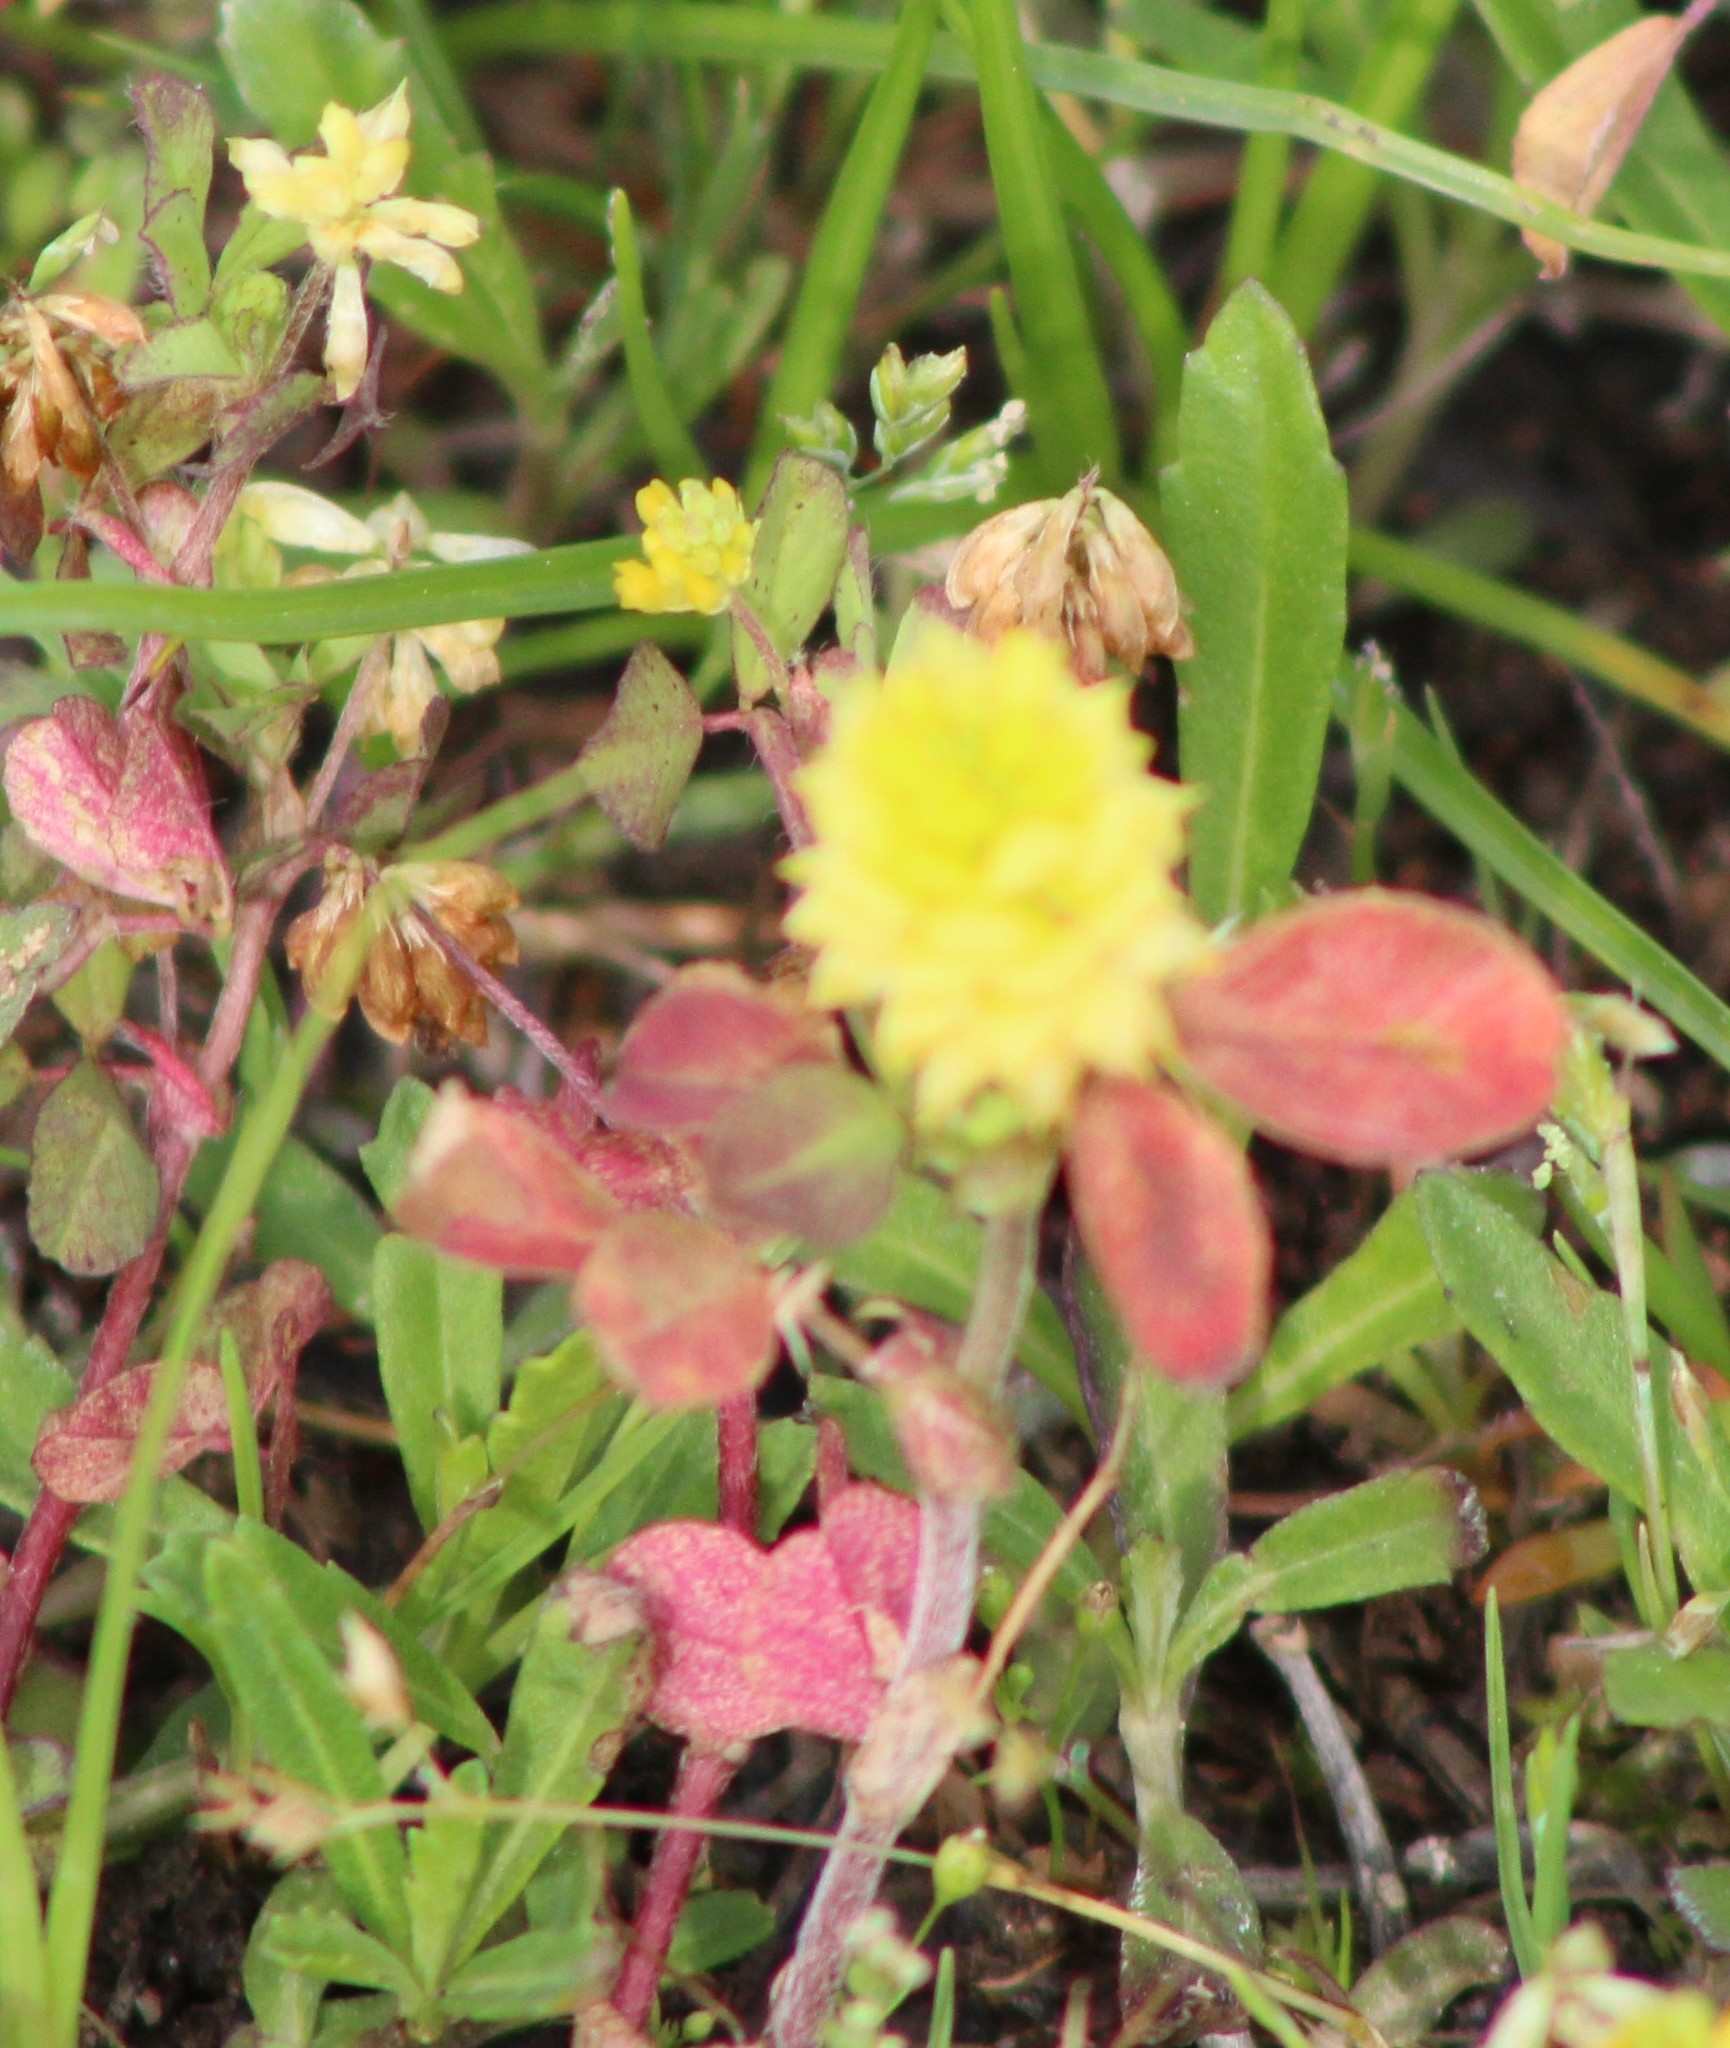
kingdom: Plantae
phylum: Tracheophyta
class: Magnoliopsida
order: Fabales
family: Fabaceae
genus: Trifolium
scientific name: Trifolium campestre
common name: Field clover
